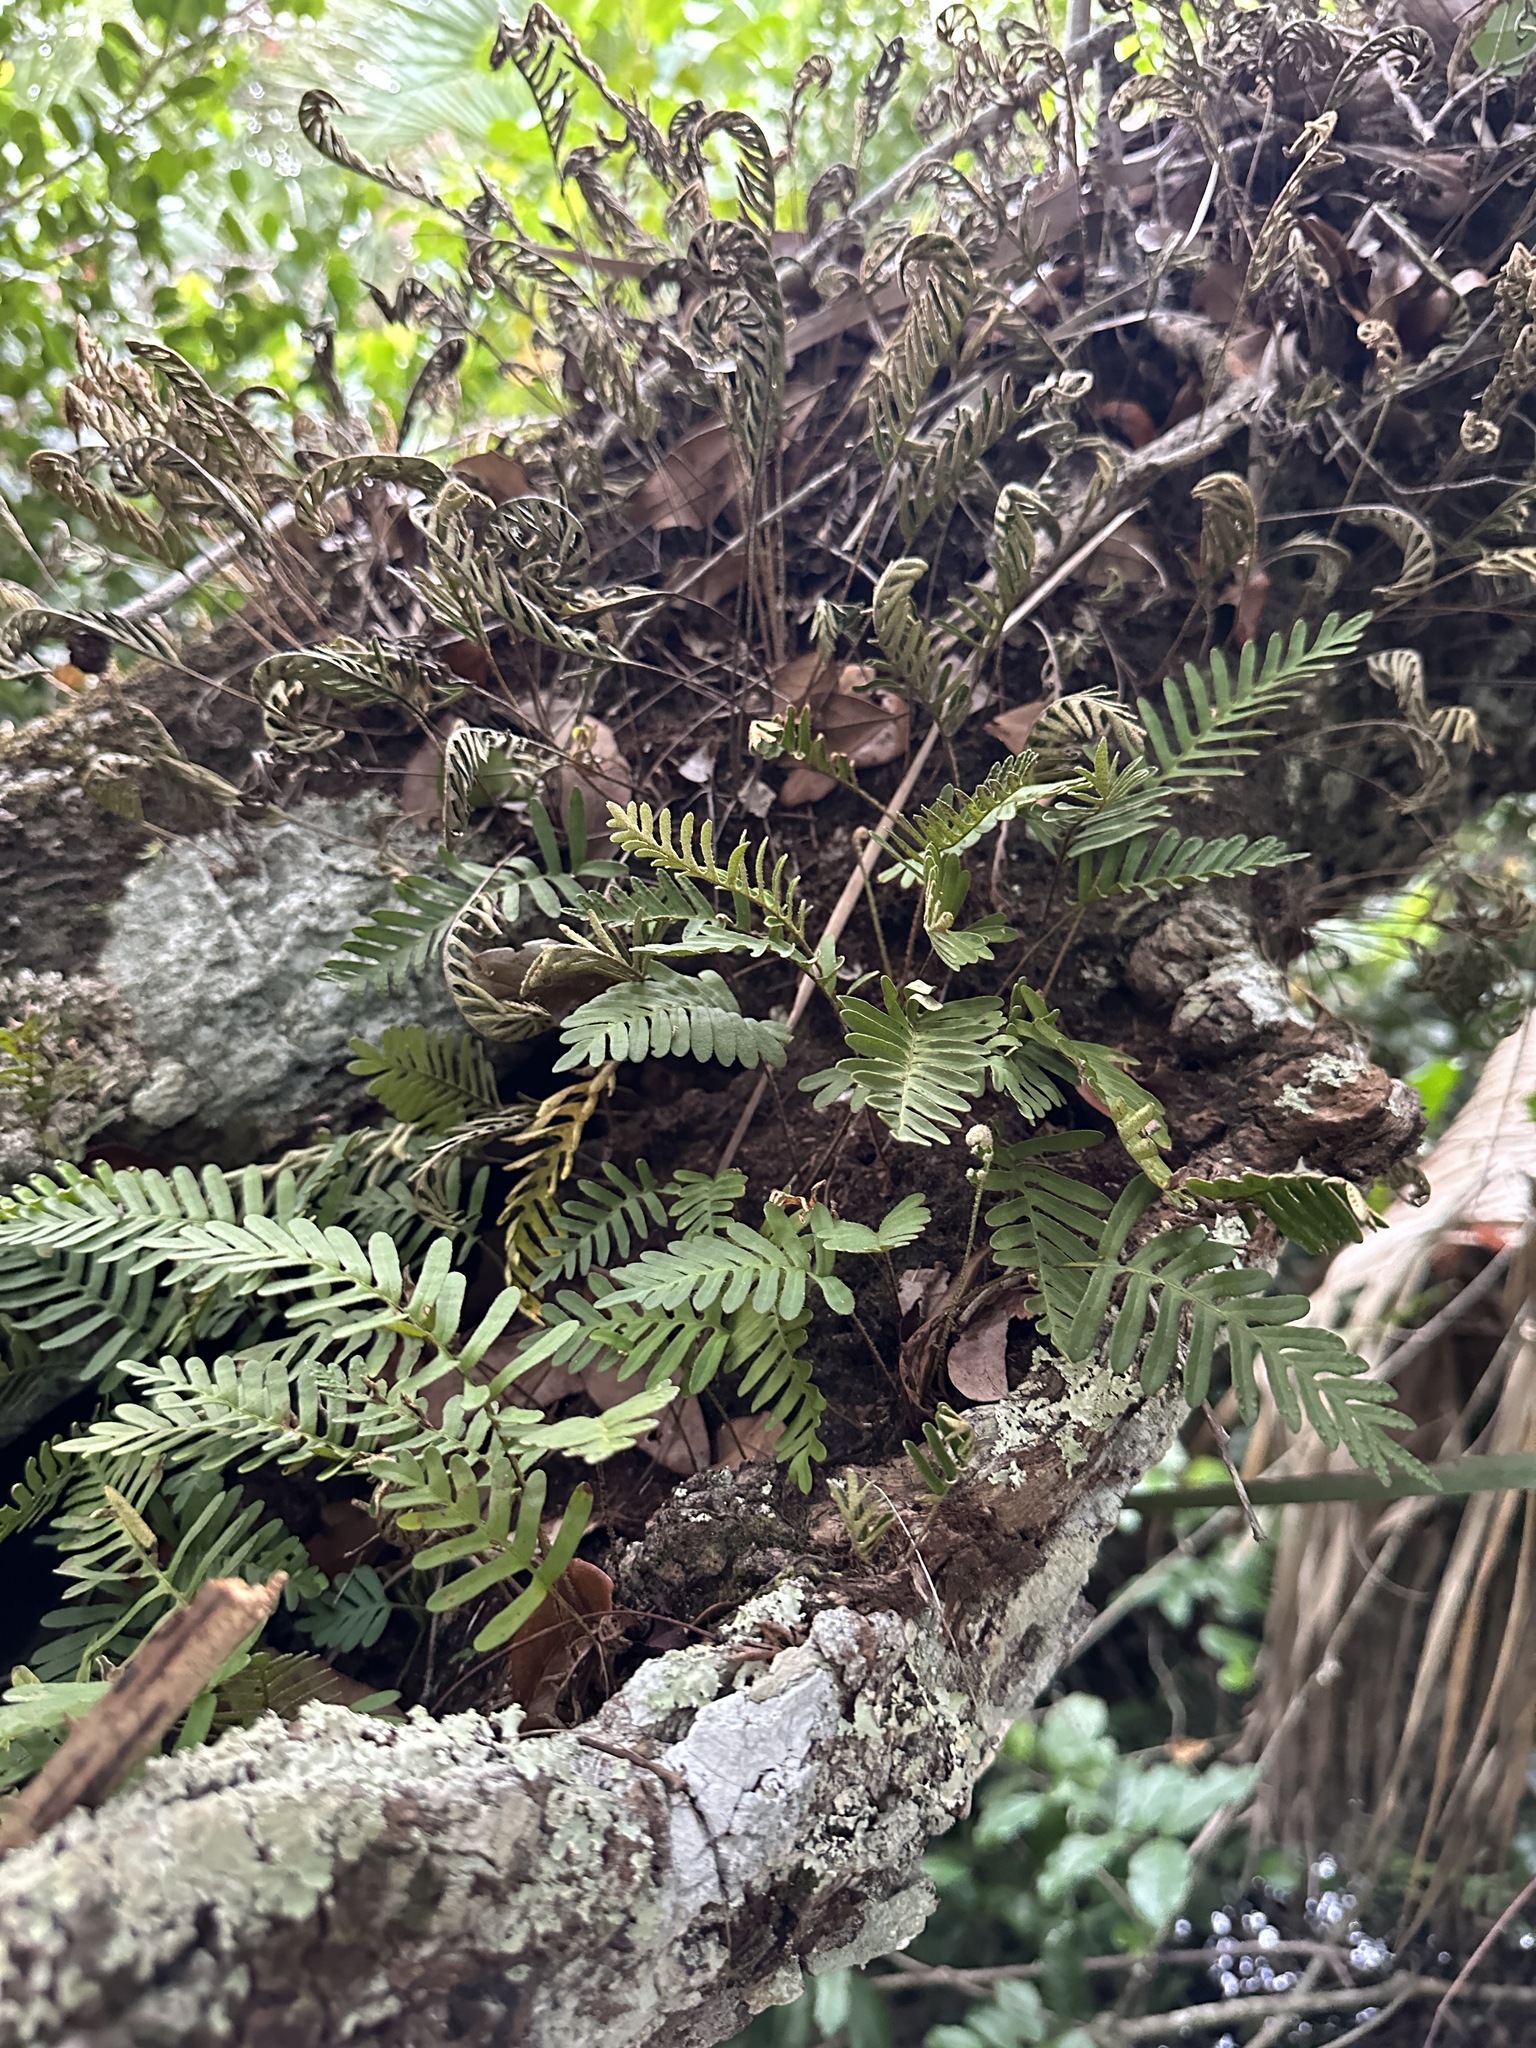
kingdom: Plantae
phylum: Tracheophyta
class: Polypodiopsida
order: Polypodiales
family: Polypodiaceae
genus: Pleopeltis
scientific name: Pleopeltis michauxiana
